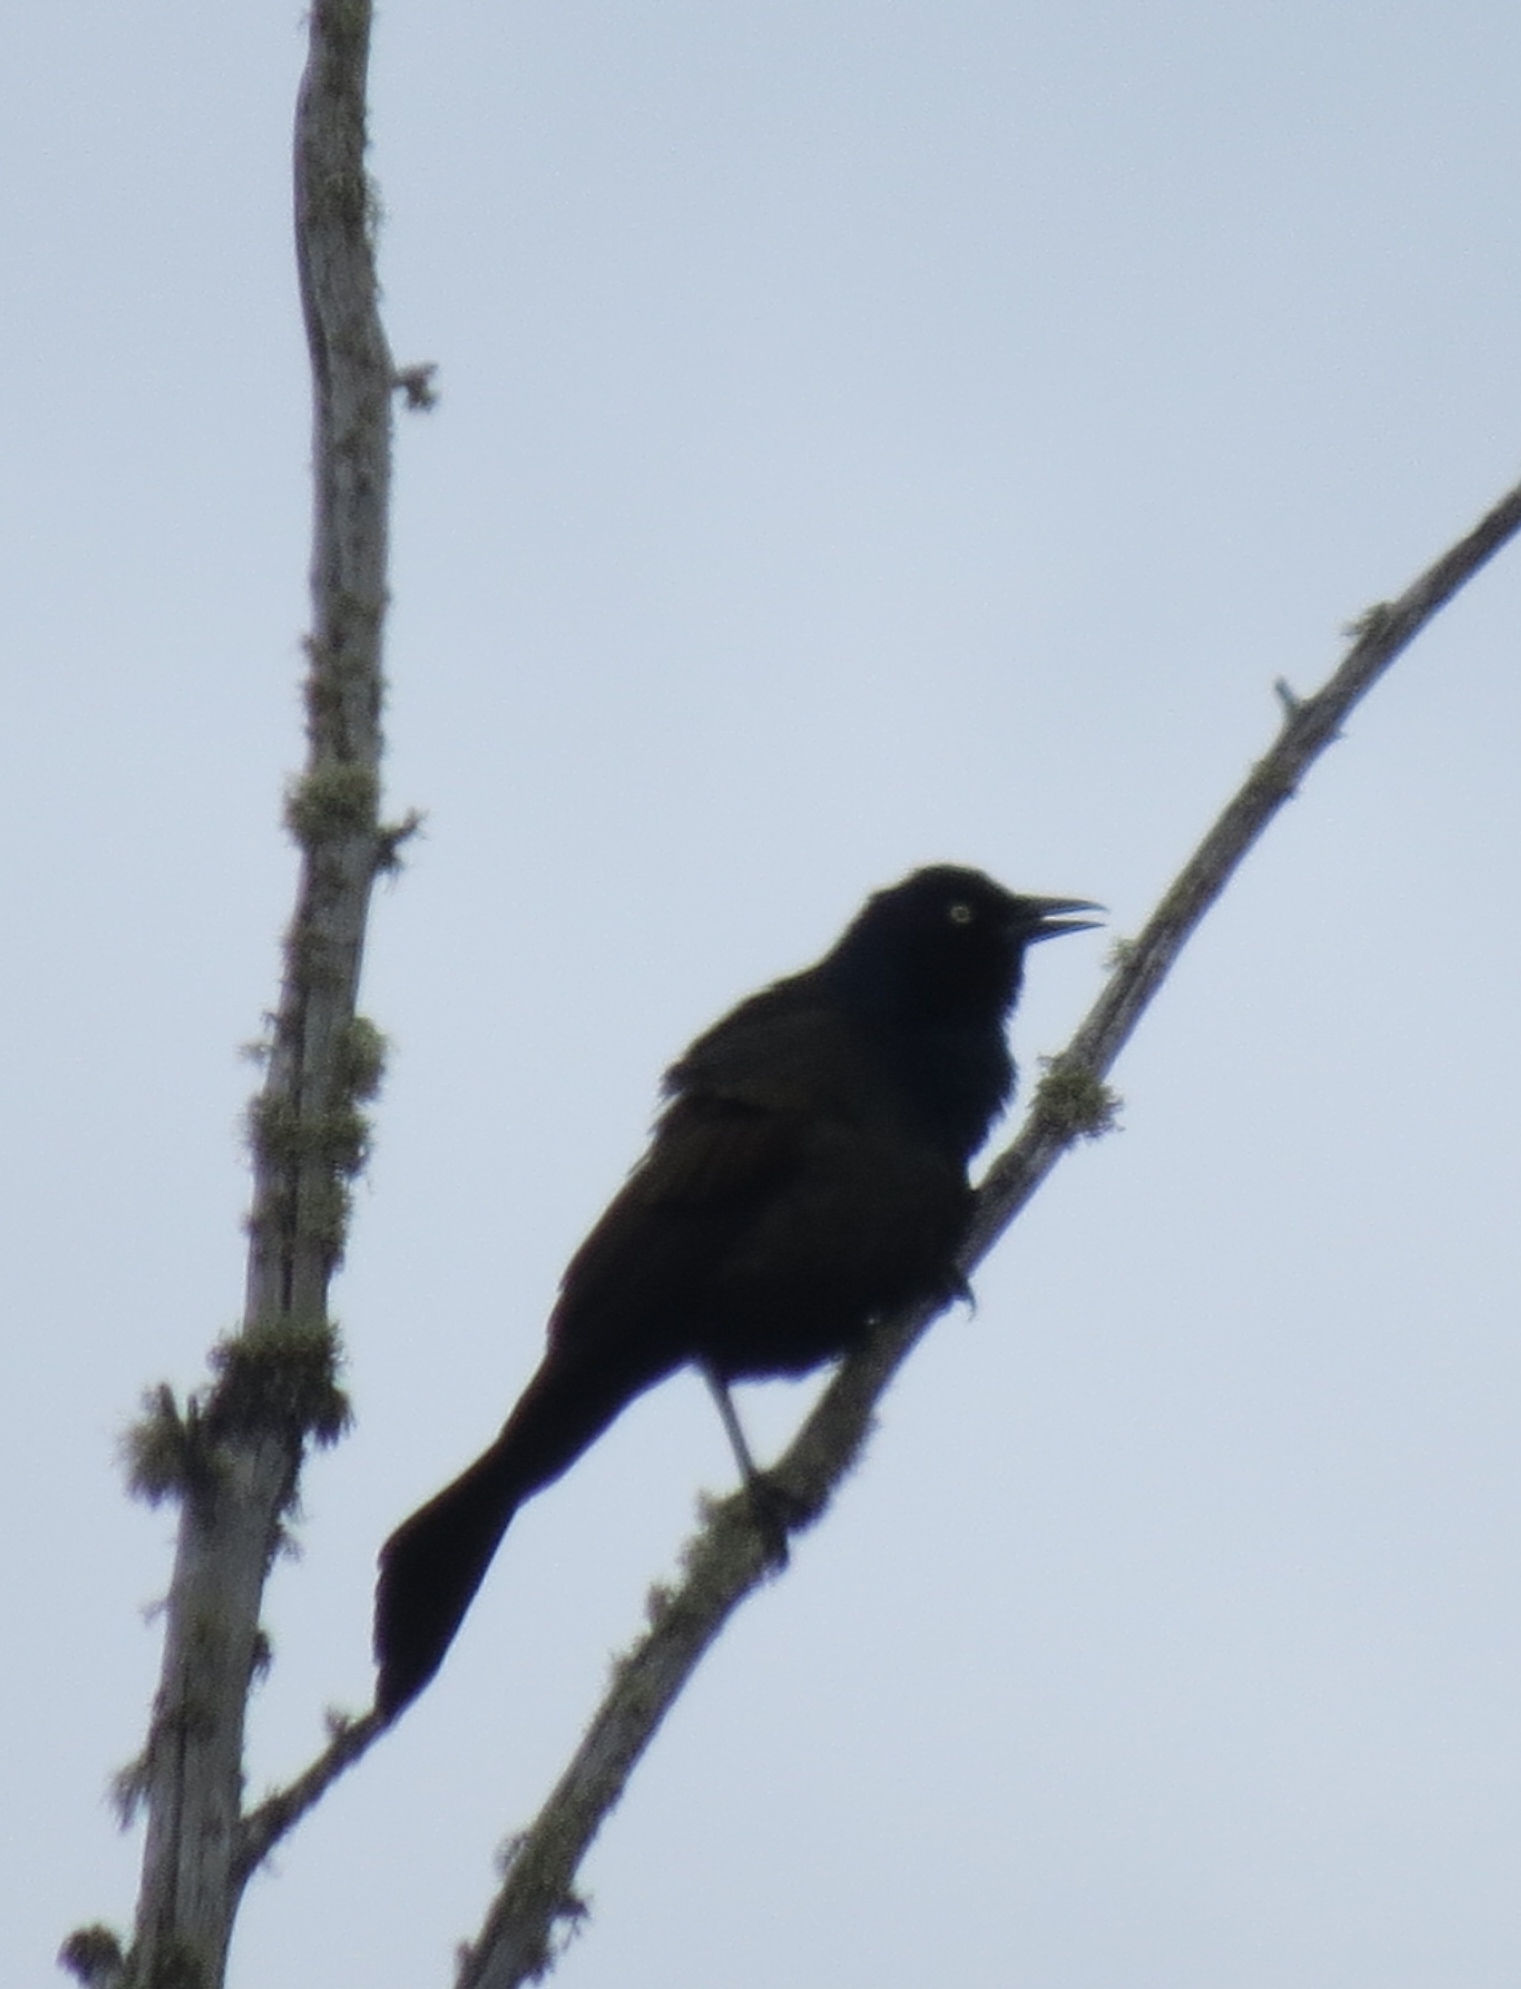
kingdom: Animalia
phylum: Chordata
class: Aves
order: Passeriformes
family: Icteridae
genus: Quiscalus
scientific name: Quiscalus quiscula
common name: Common grackle
